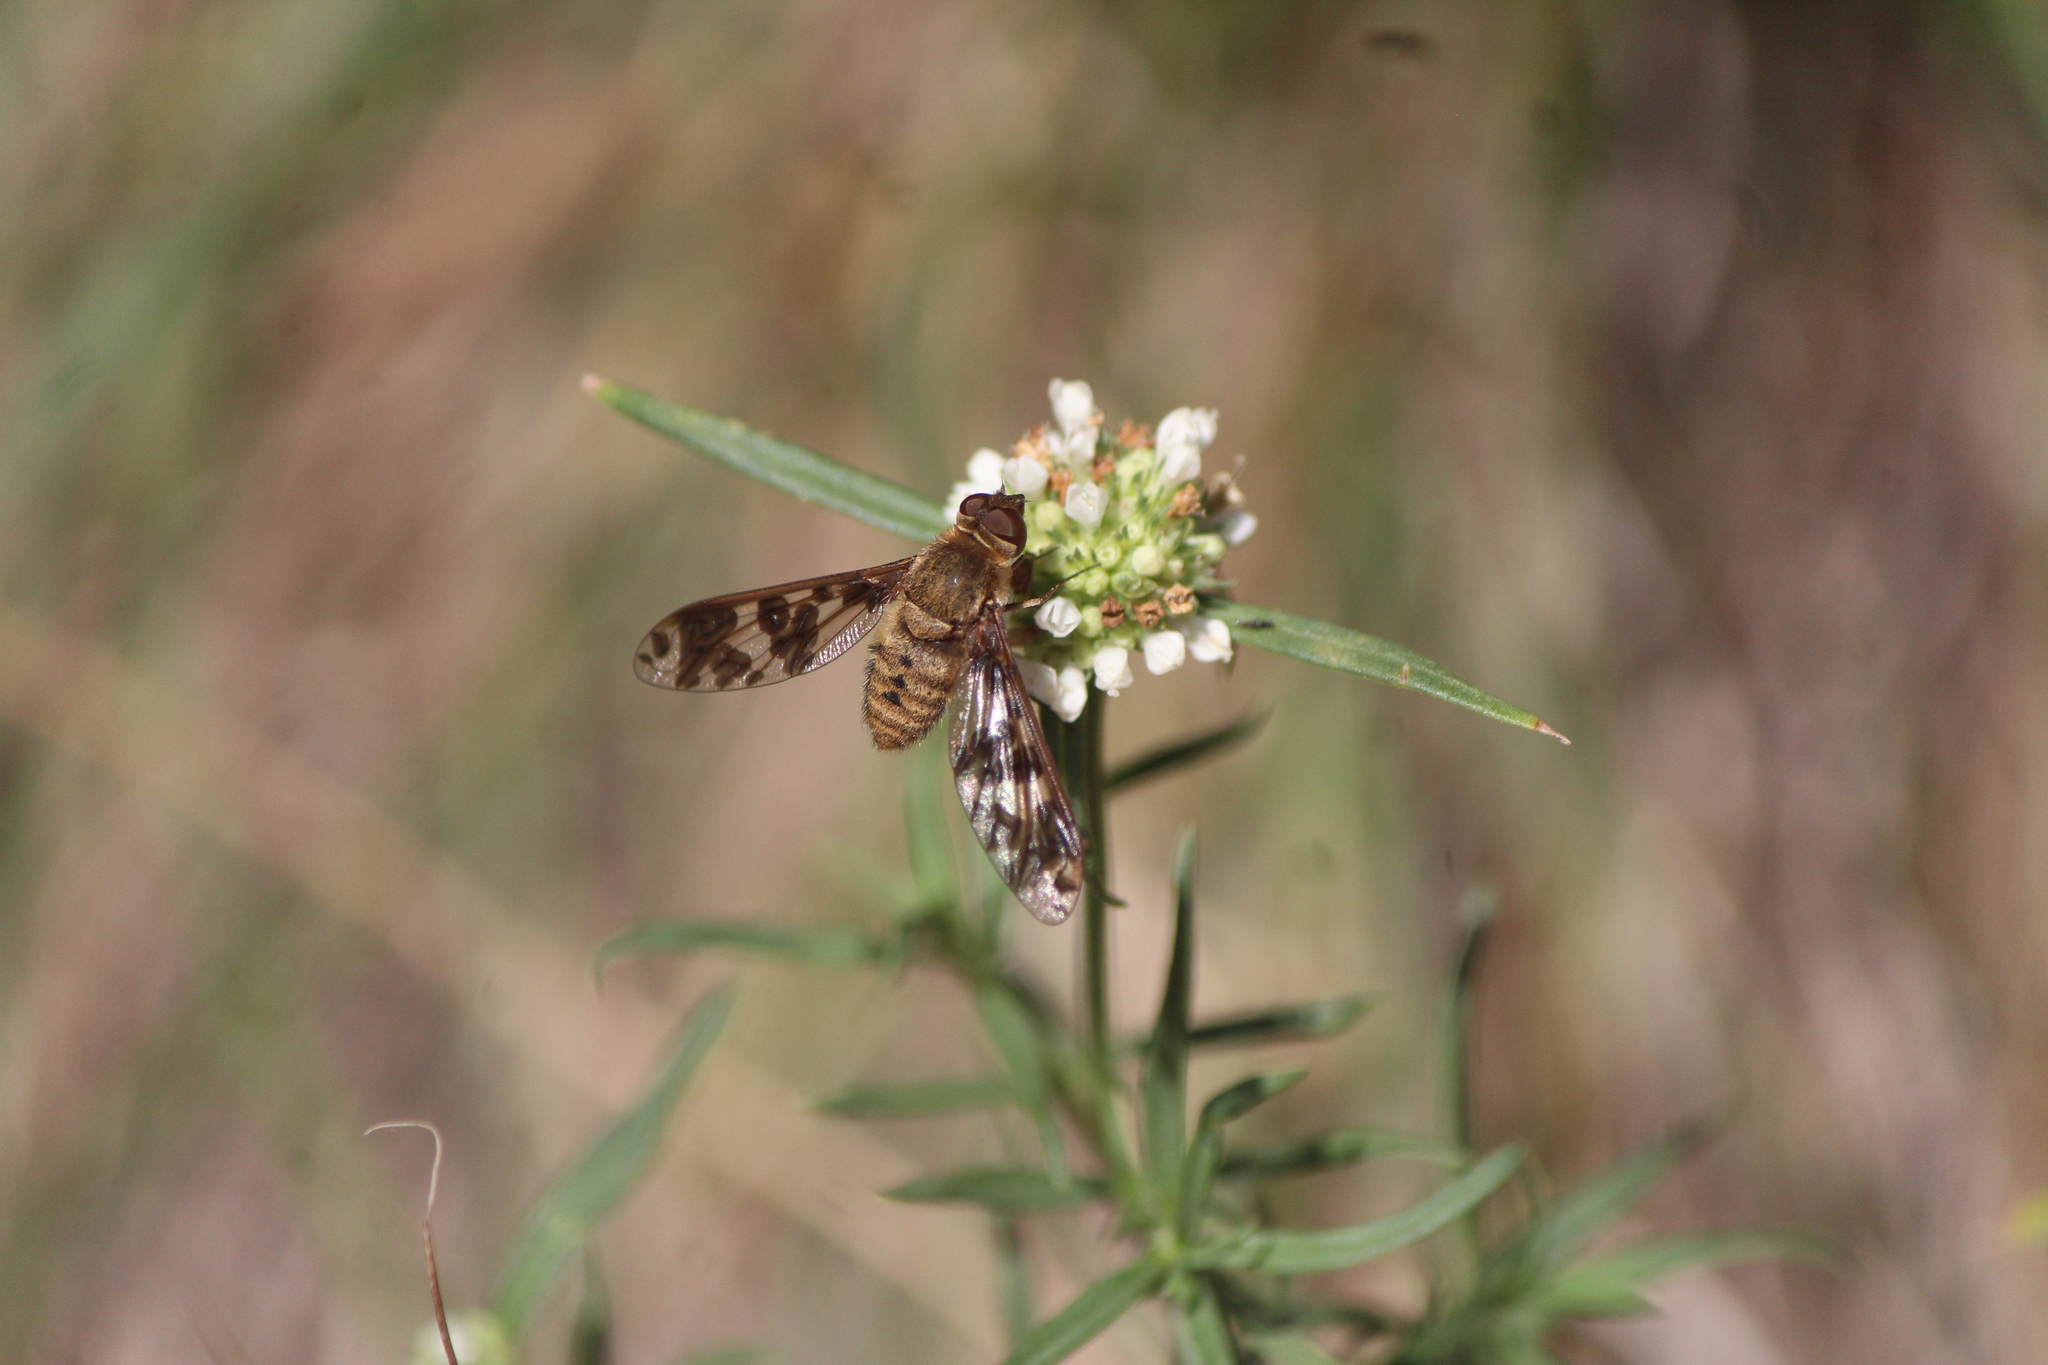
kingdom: Animalia
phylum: Arthropoda
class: Insecta
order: Diptera
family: Bombyliidae
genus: Dipalta
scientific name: Dipalta serpentina
